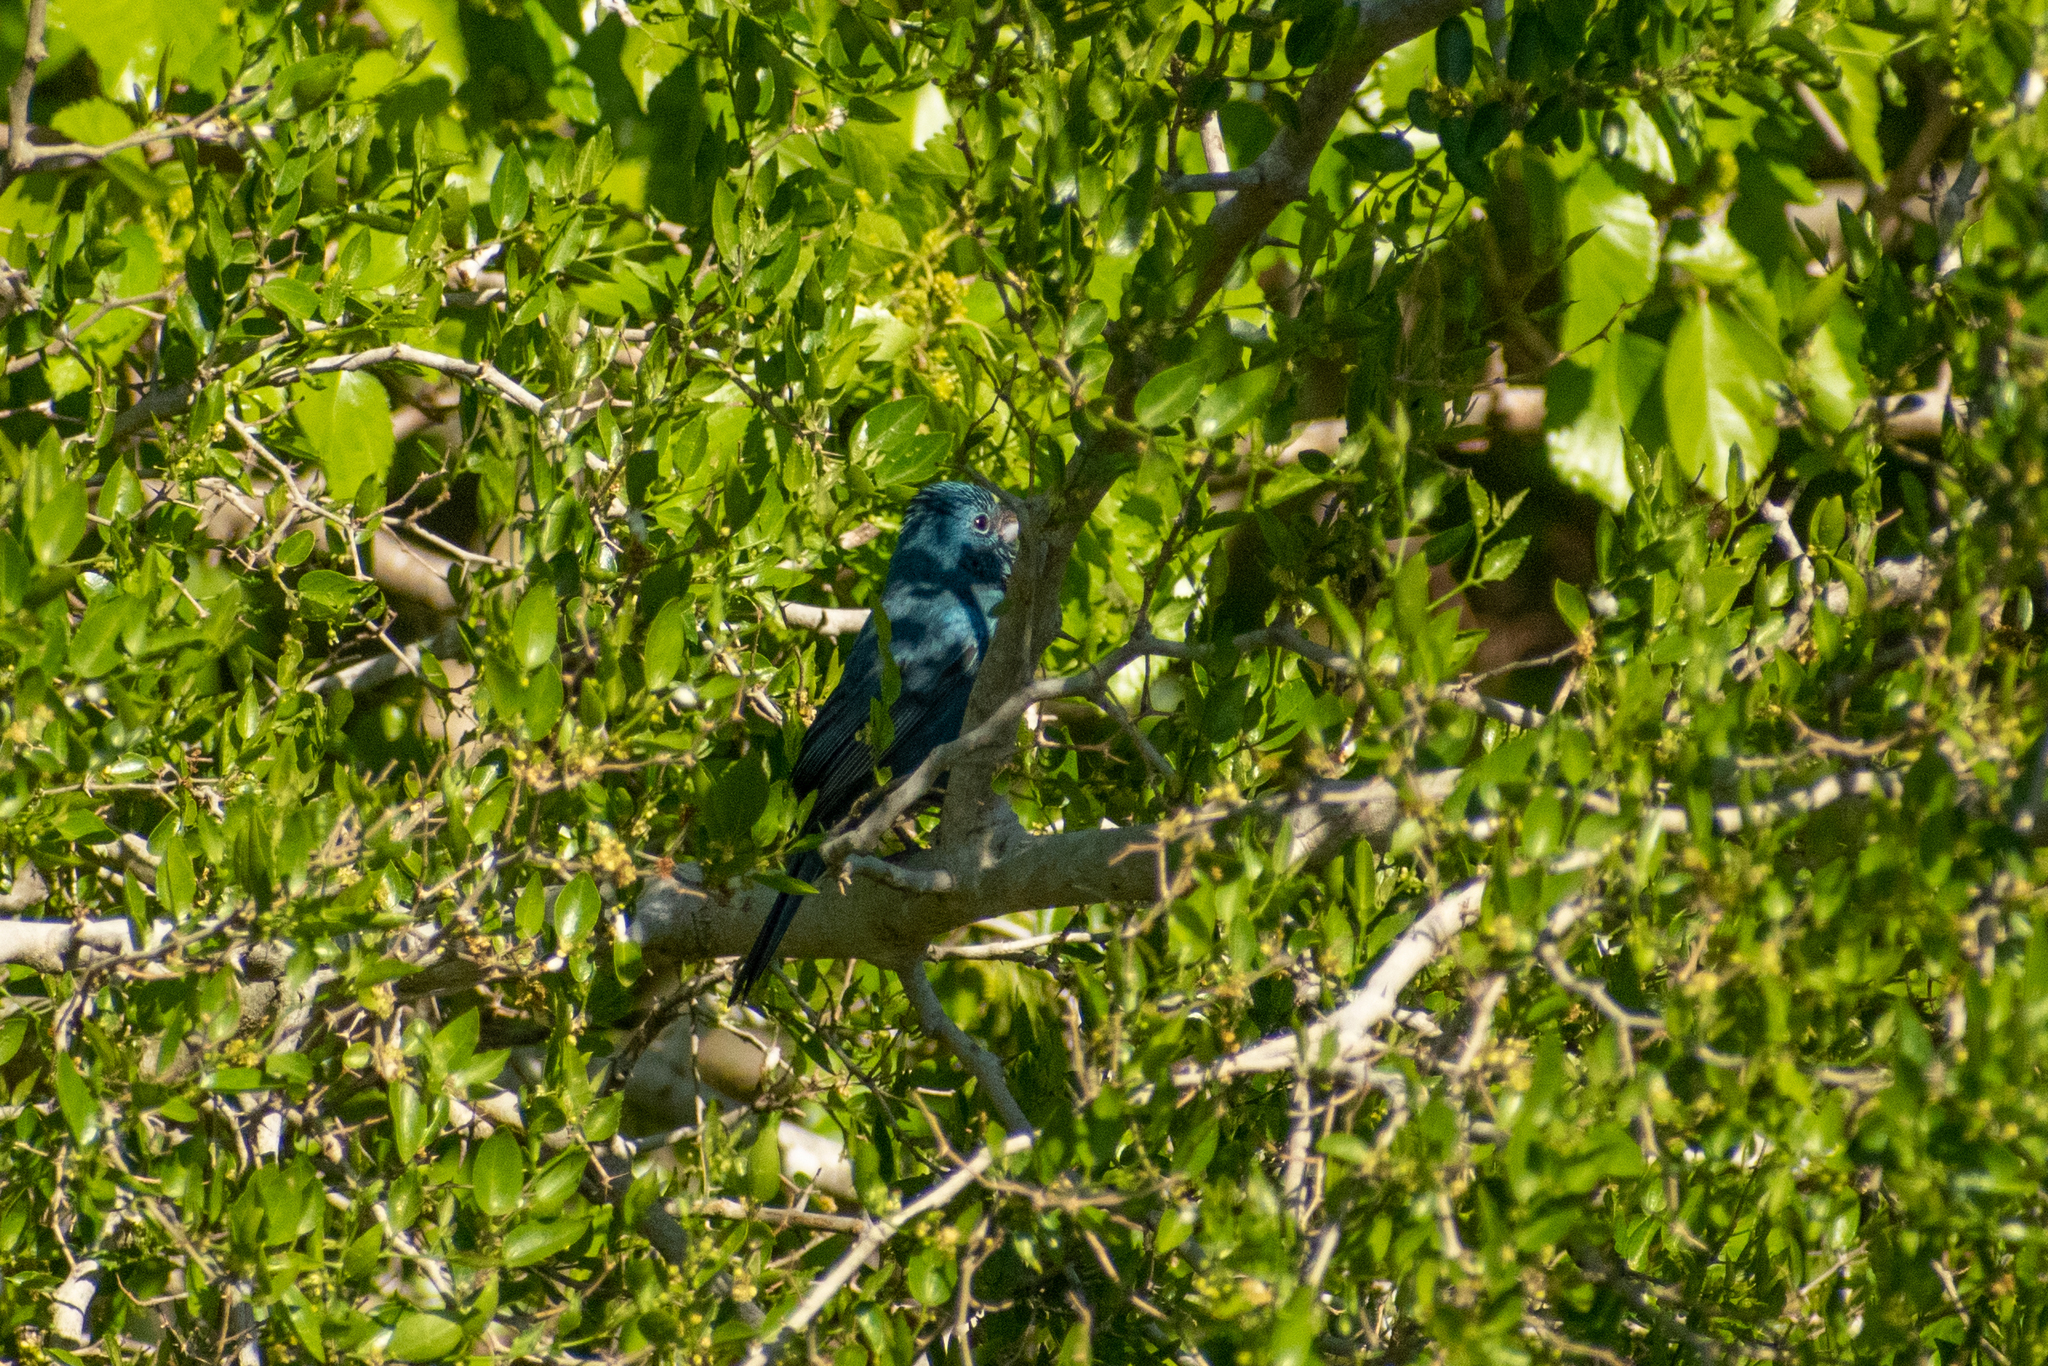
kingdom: Animalia
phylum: Chordata
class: Aves
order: Passeriformes
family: Cardinalidae
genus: Cyanoloxia
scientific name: Cyanoloxia glaucocaerulea
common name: Glaucous-blue grosbeak
